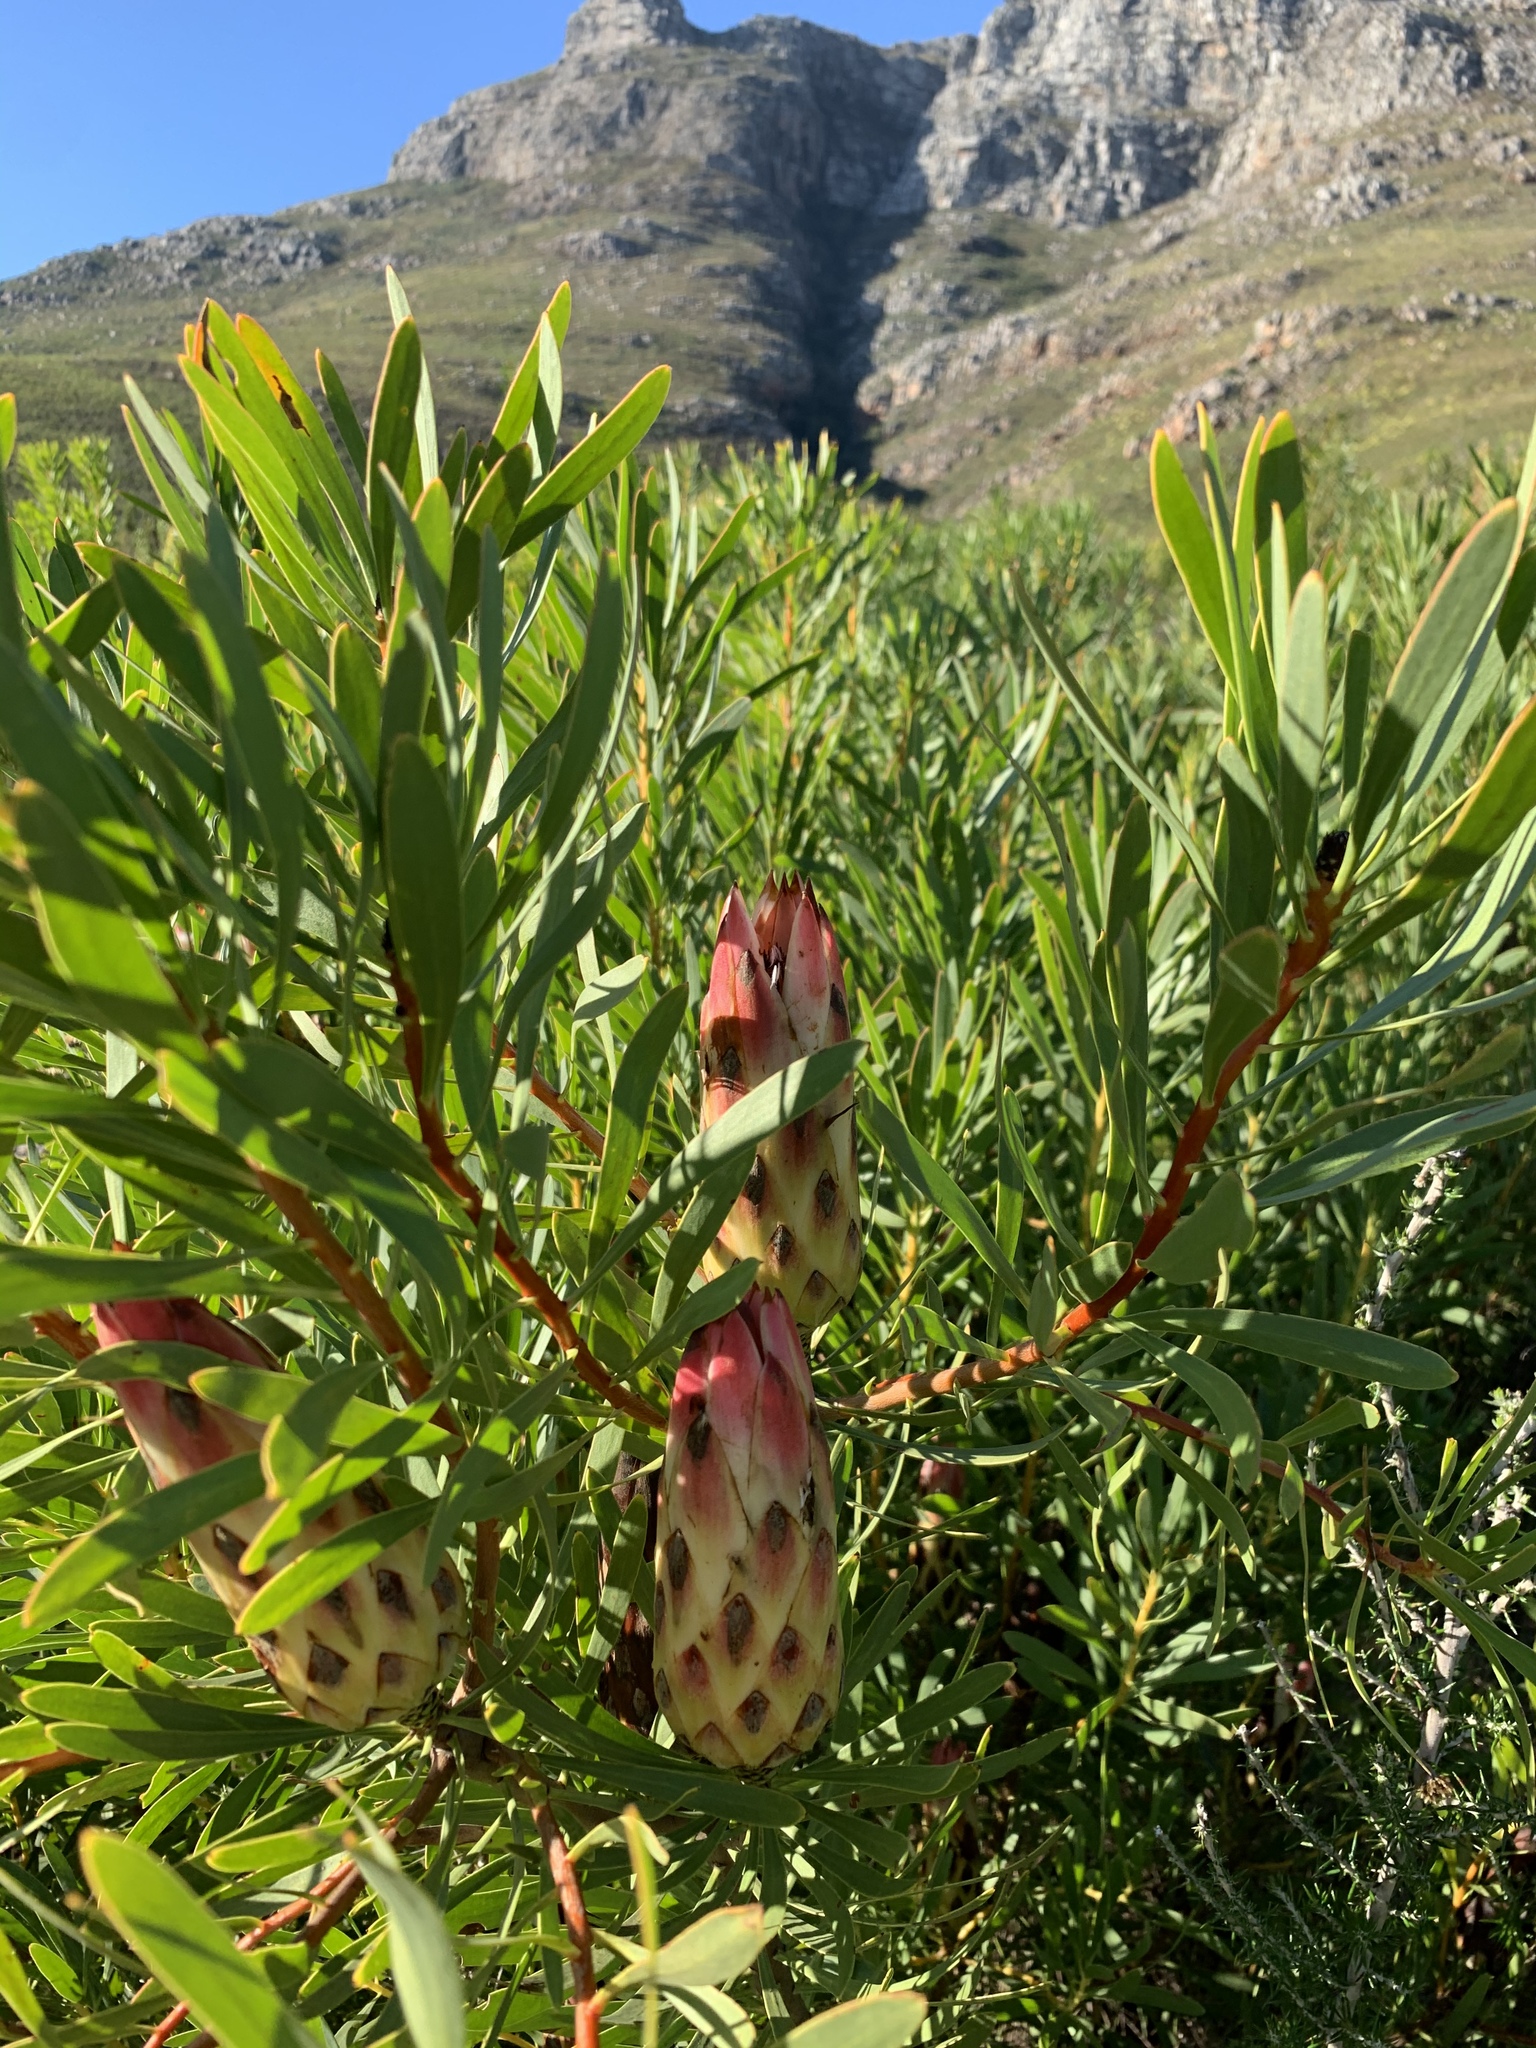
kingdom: Plantae
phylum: Tracheophyta
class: Magnoliopsida
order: Proteales
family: Proteaceae
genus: Protea
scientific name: Protea repens
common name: Sugarbush
